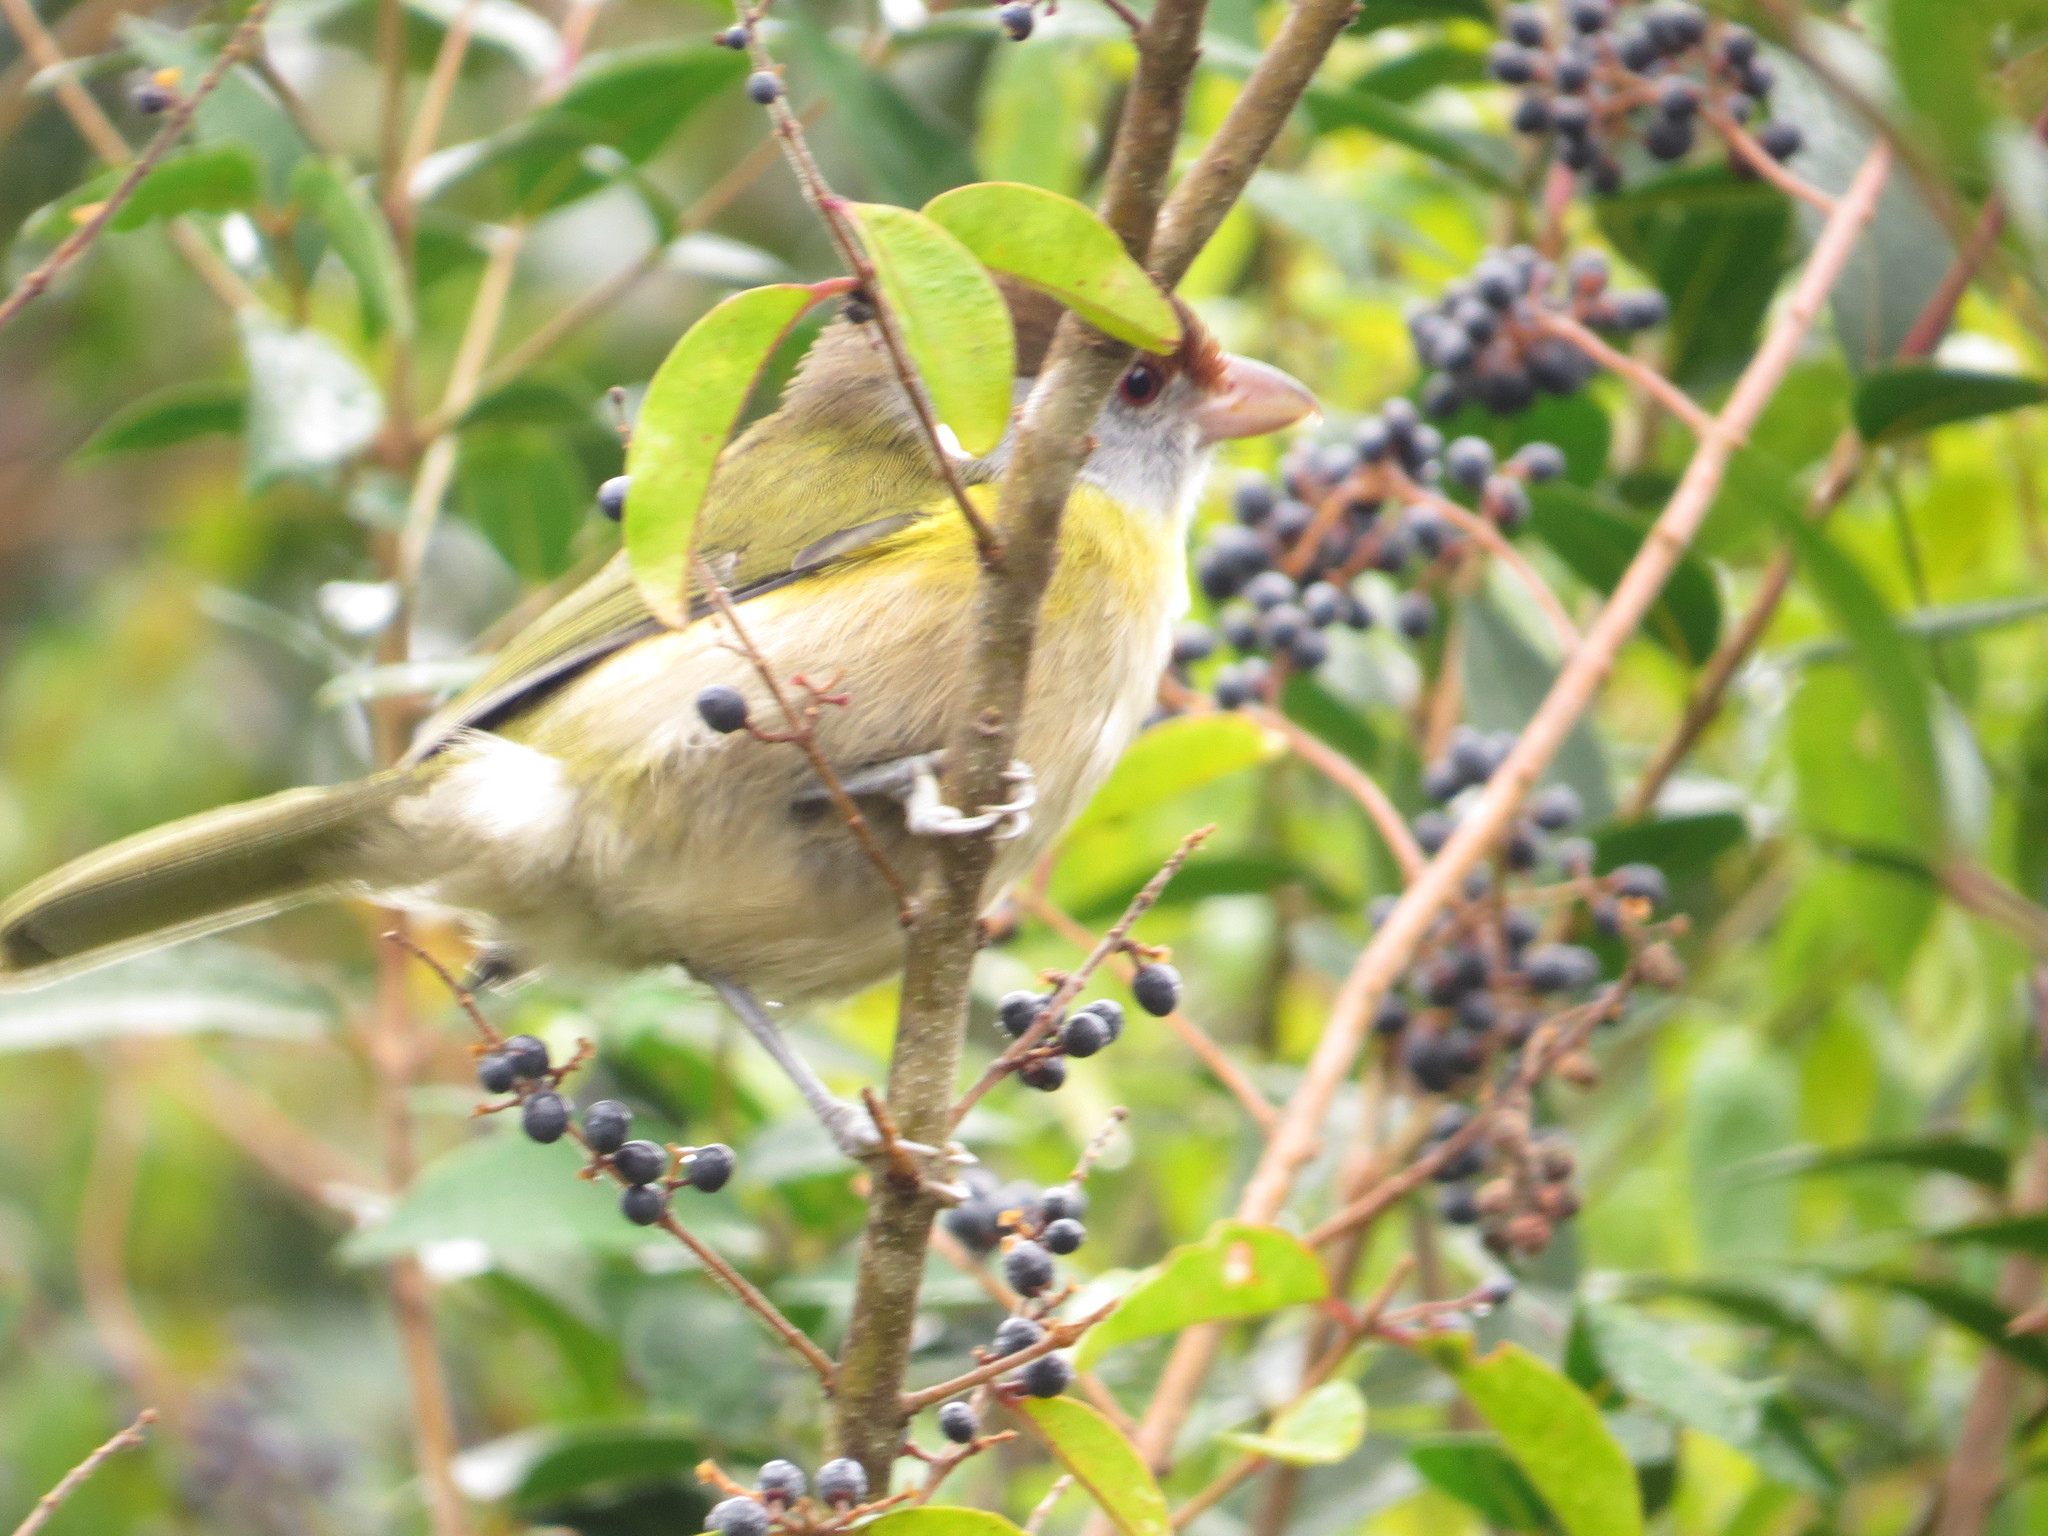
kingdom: Animalia
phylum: Chordata
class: Aves
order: Passeriformes
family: Vireonidae
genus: Cyclarhis
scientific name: Cyclarhis gujanensis
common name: Rufous-browed peppershrike
